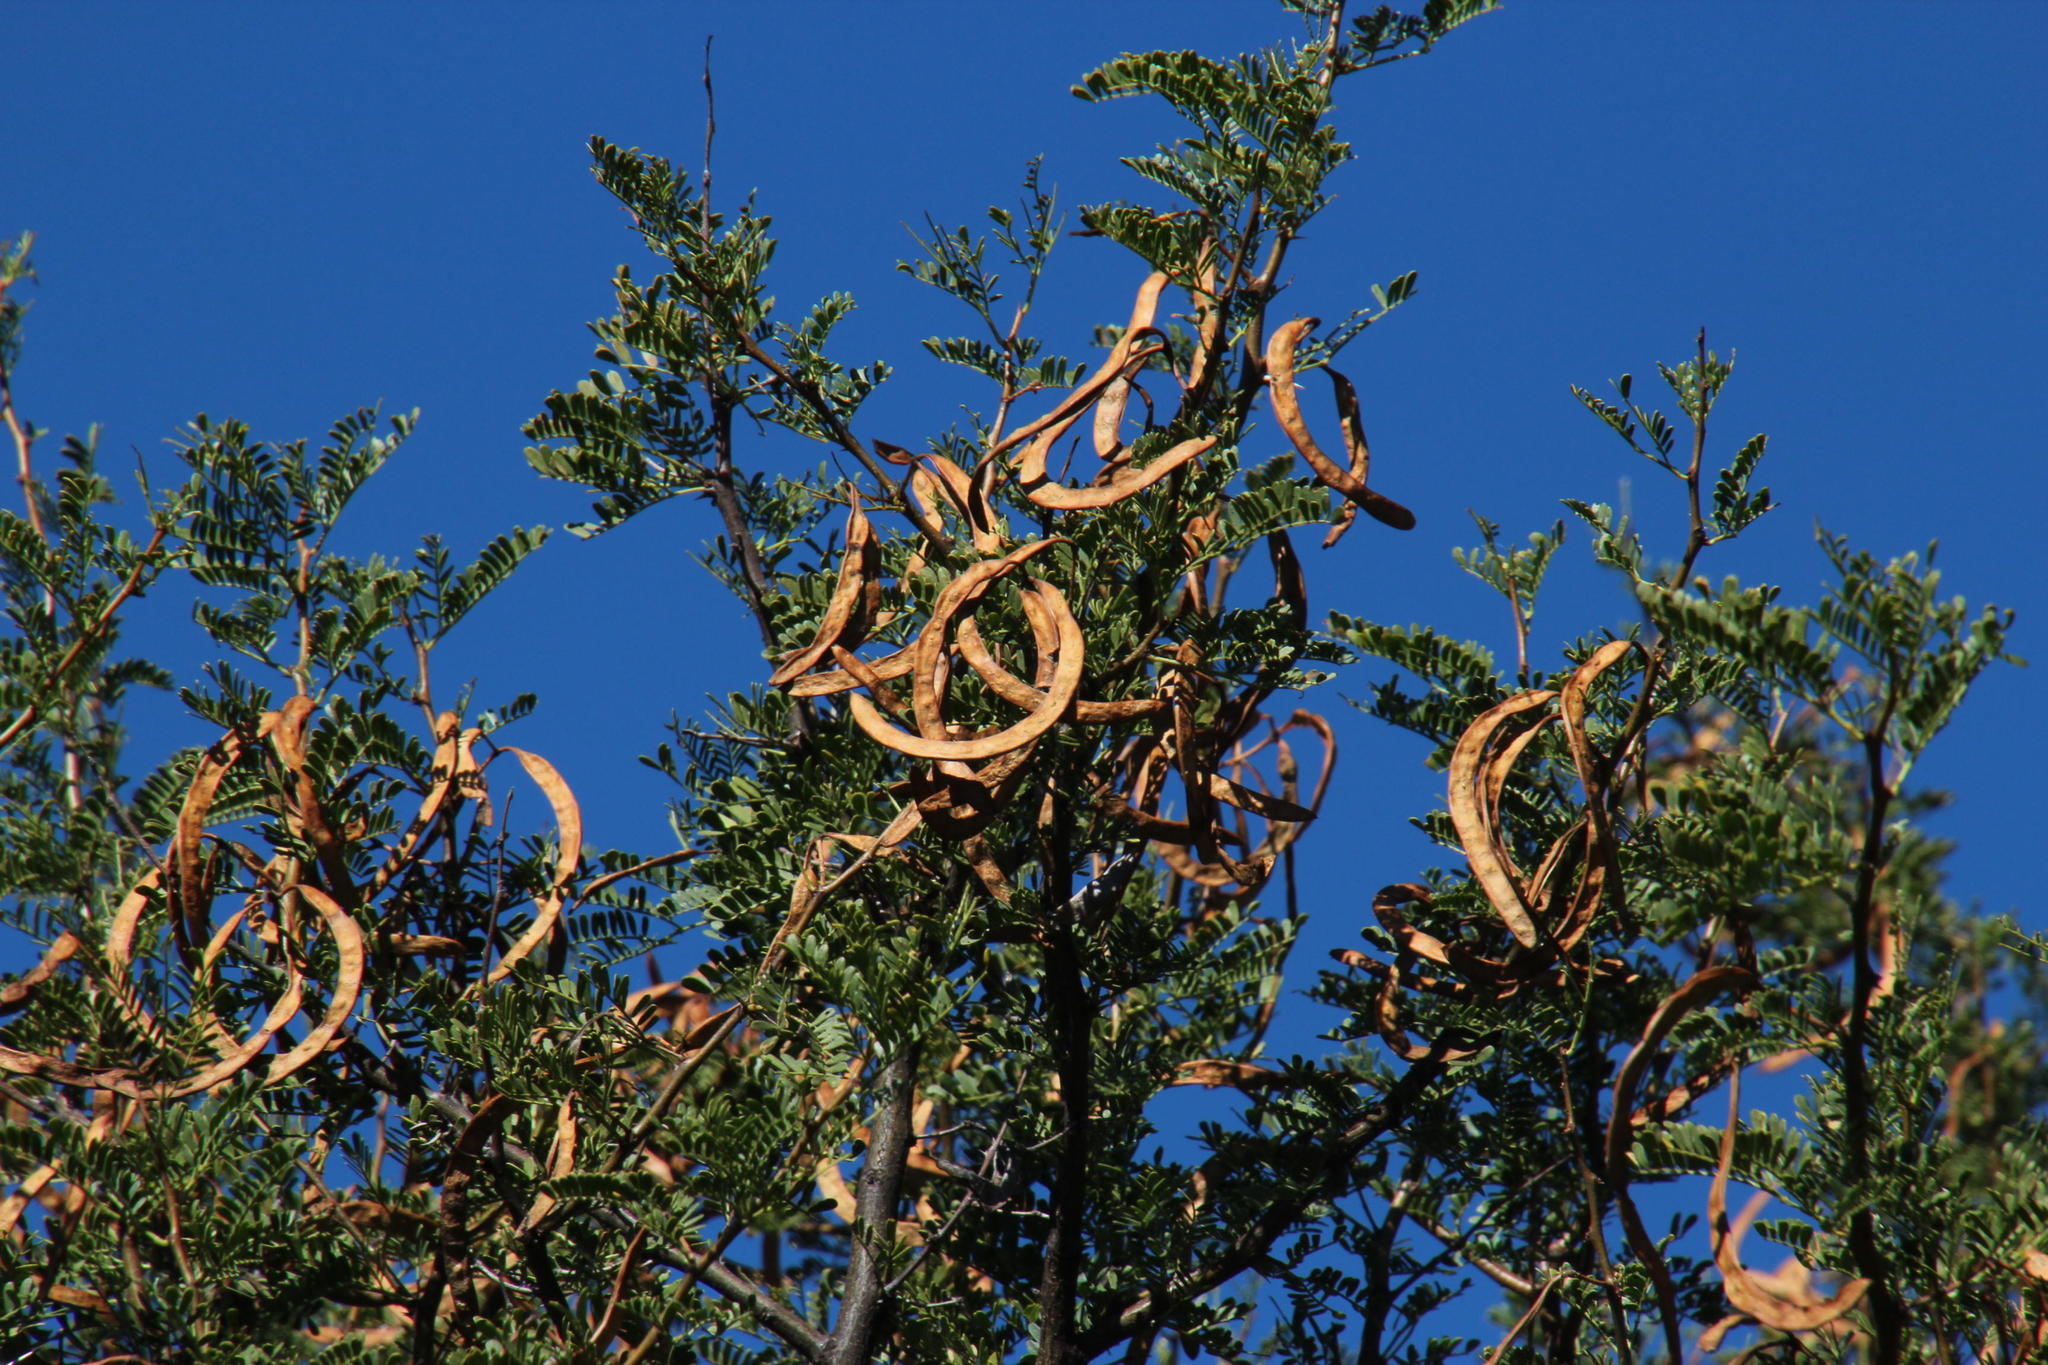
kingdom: Plantae
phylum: Tracheophyta
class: Magnoliopsida
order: Fabales
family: Fabaceae
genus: Vachellia
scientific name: Vachellia karroo
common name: Sweet thorn
